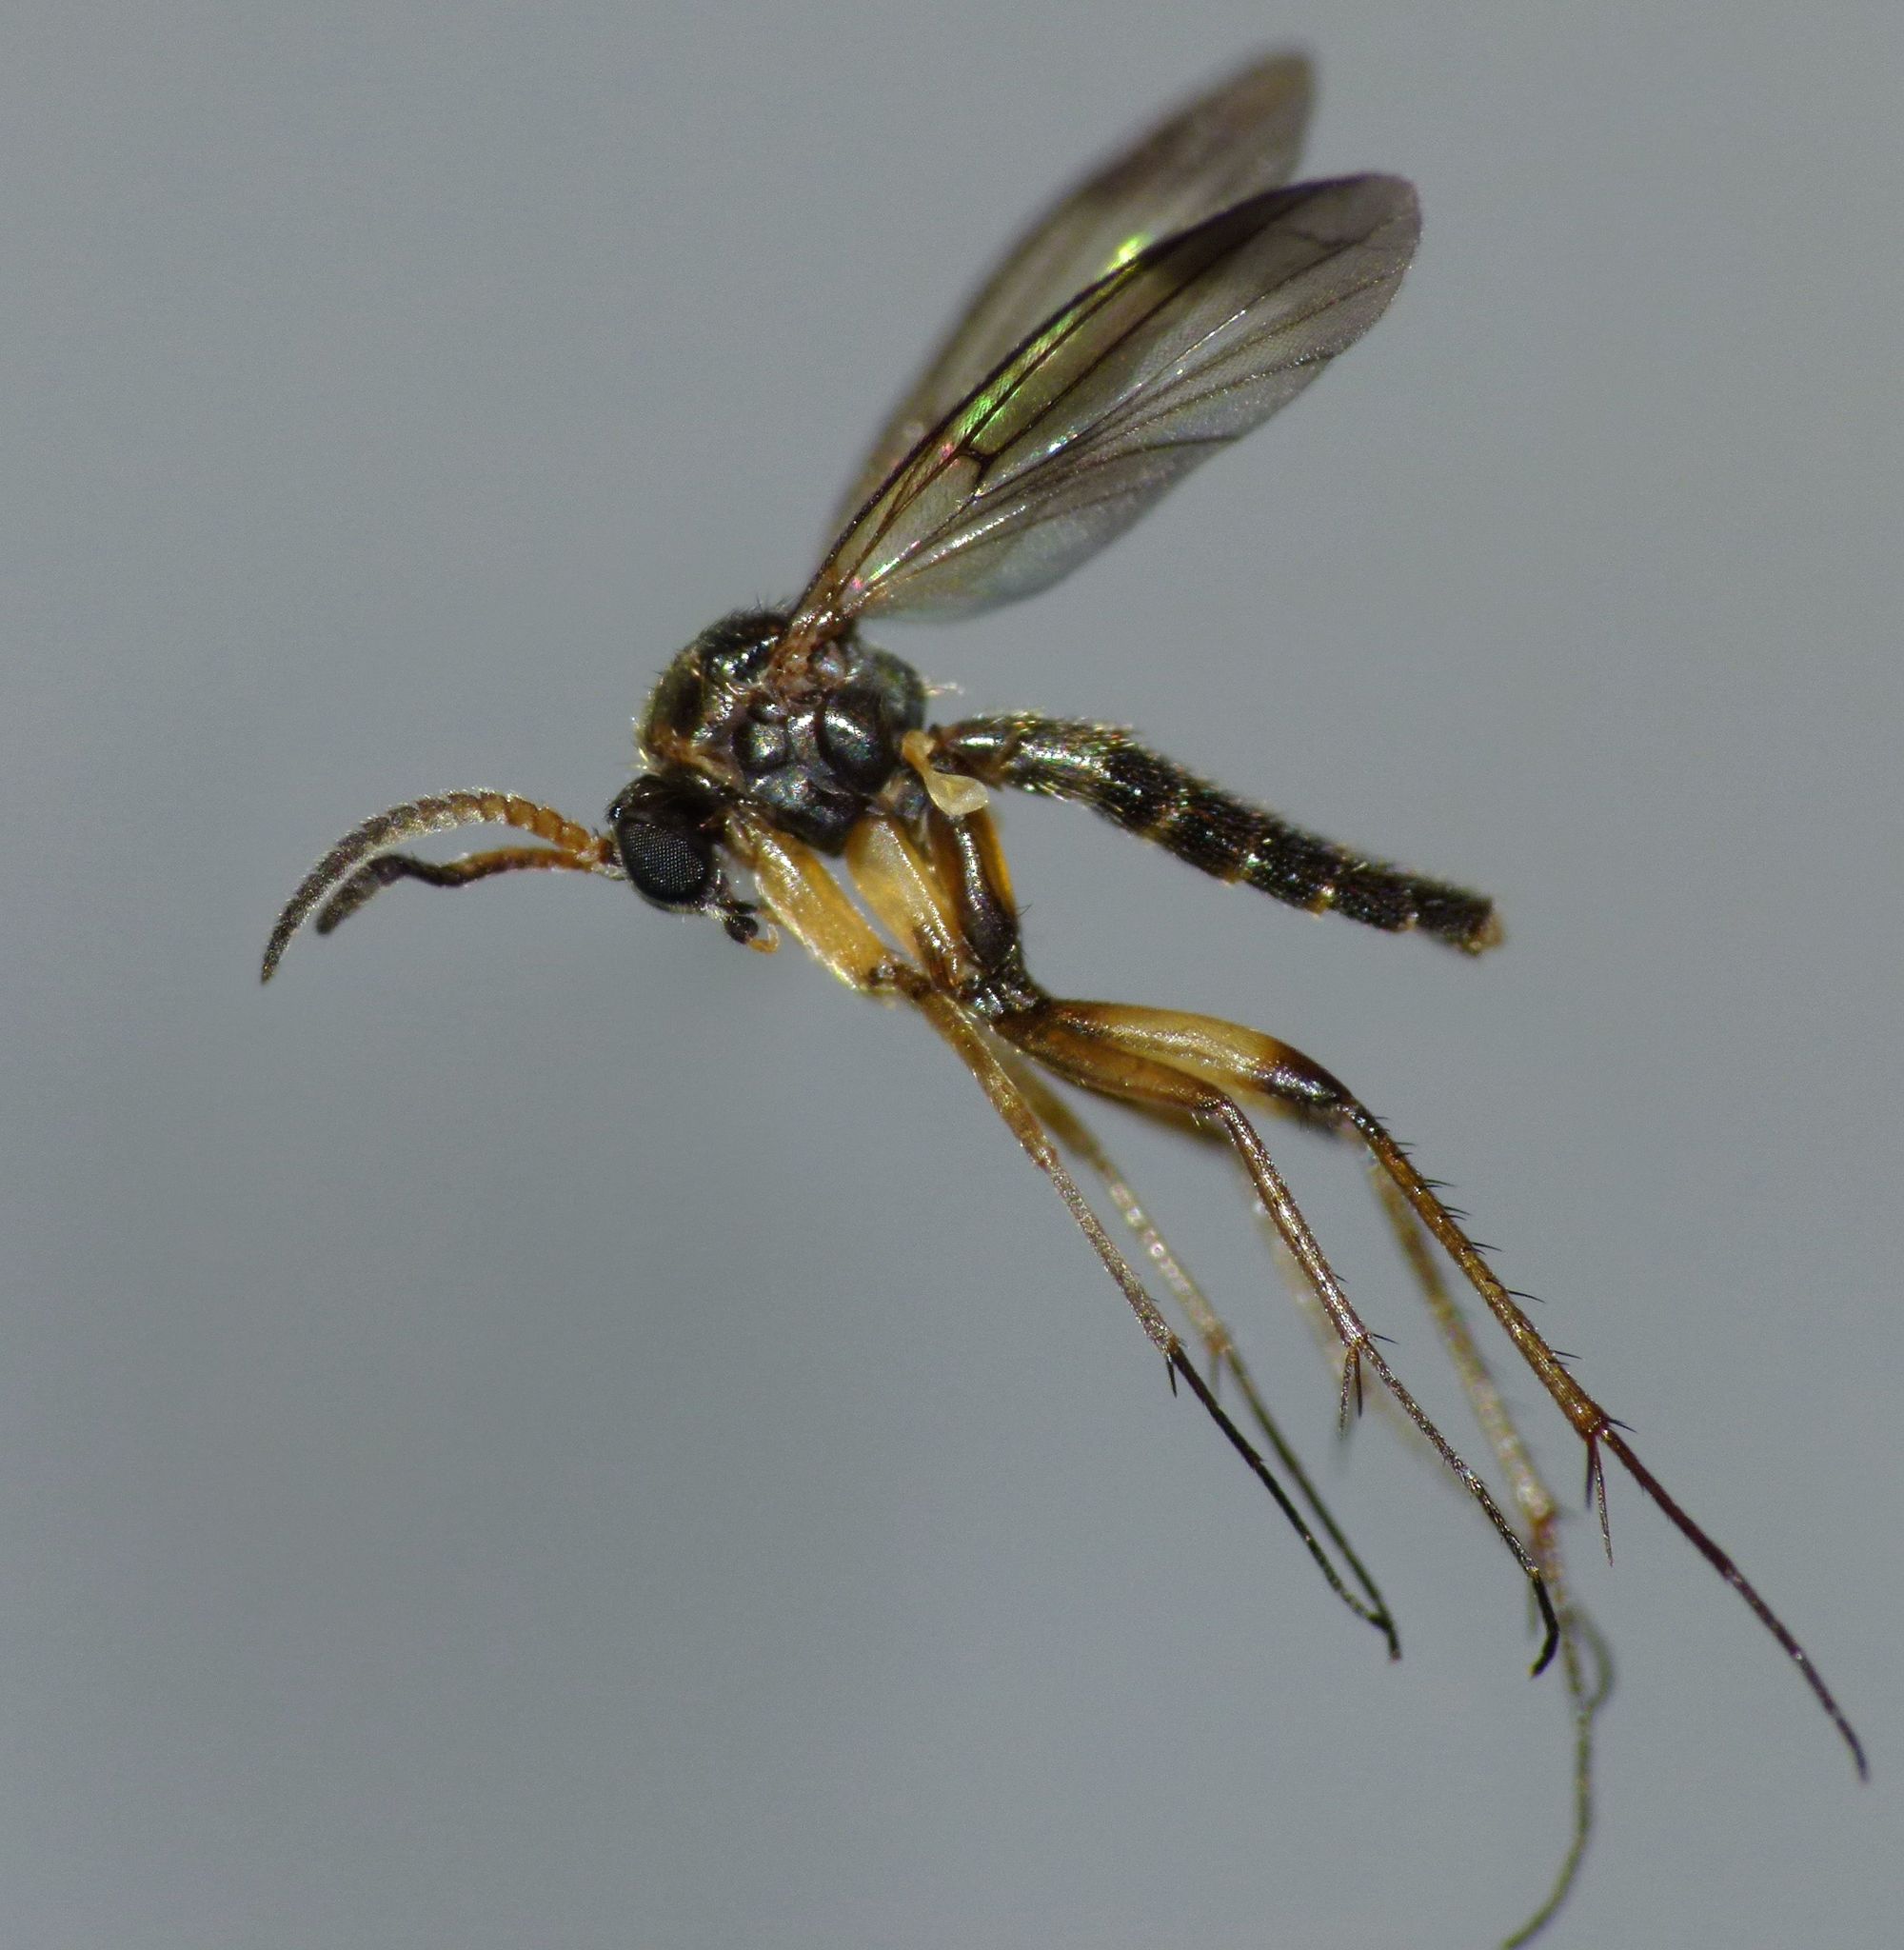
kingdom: Animalia
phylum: Arthropoda
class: Insecta
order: Diptera
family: Mycetophilidae
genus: Allocotocera
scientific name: Allocotocera crassipalpis
